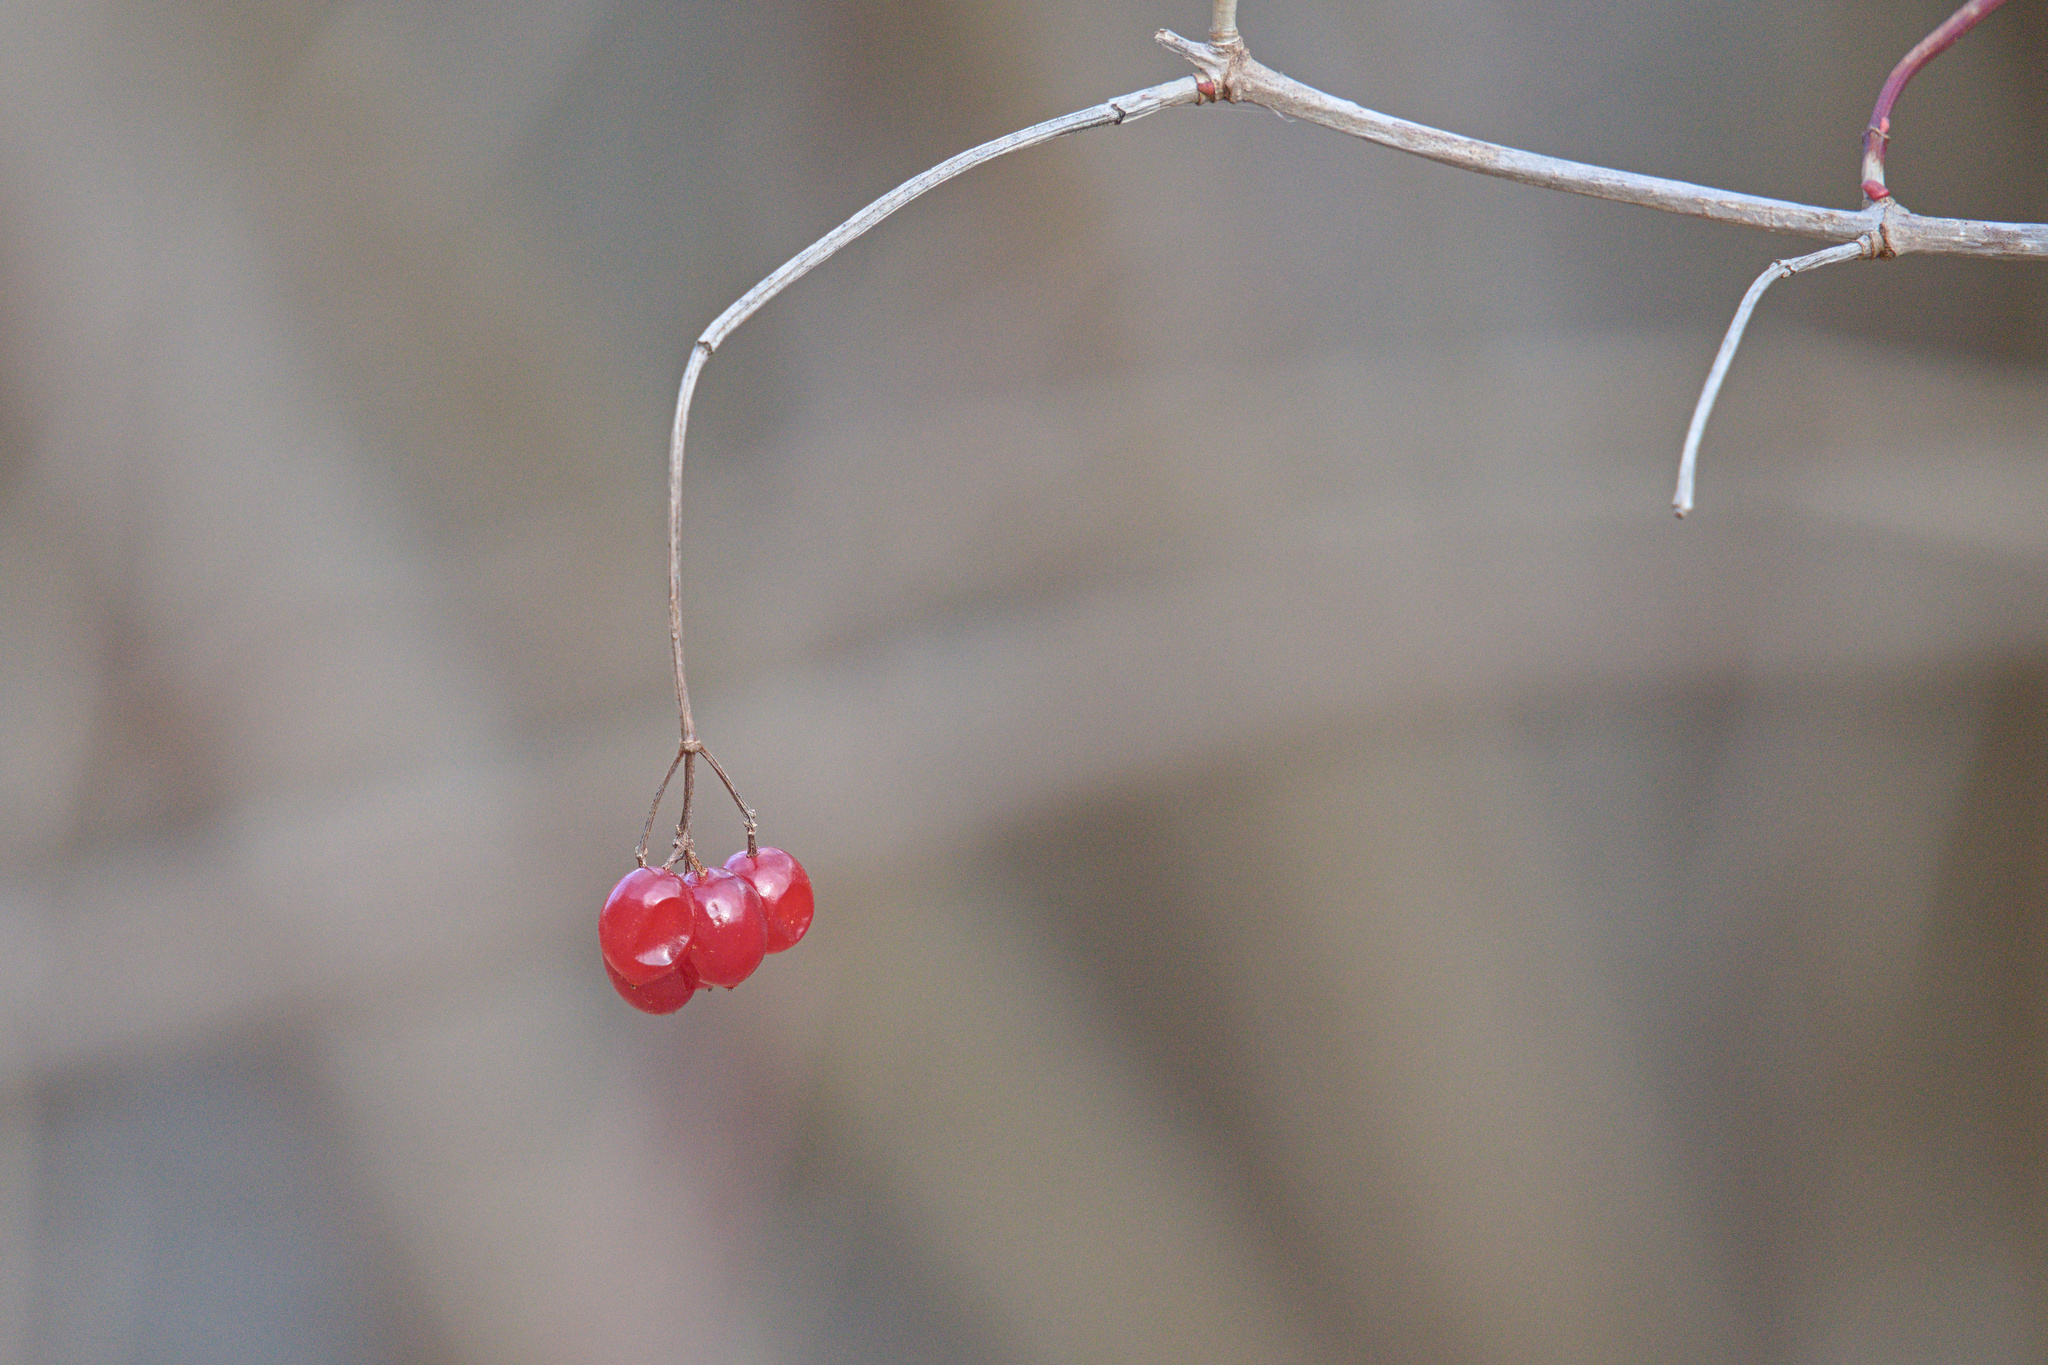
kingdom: Plantae
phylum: Tracheophyta
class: Magnoliopsida
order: Dipsacales
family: Viburnaceae
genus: Viburnum
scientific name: Viburnum opulus
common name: Guelder-rose
